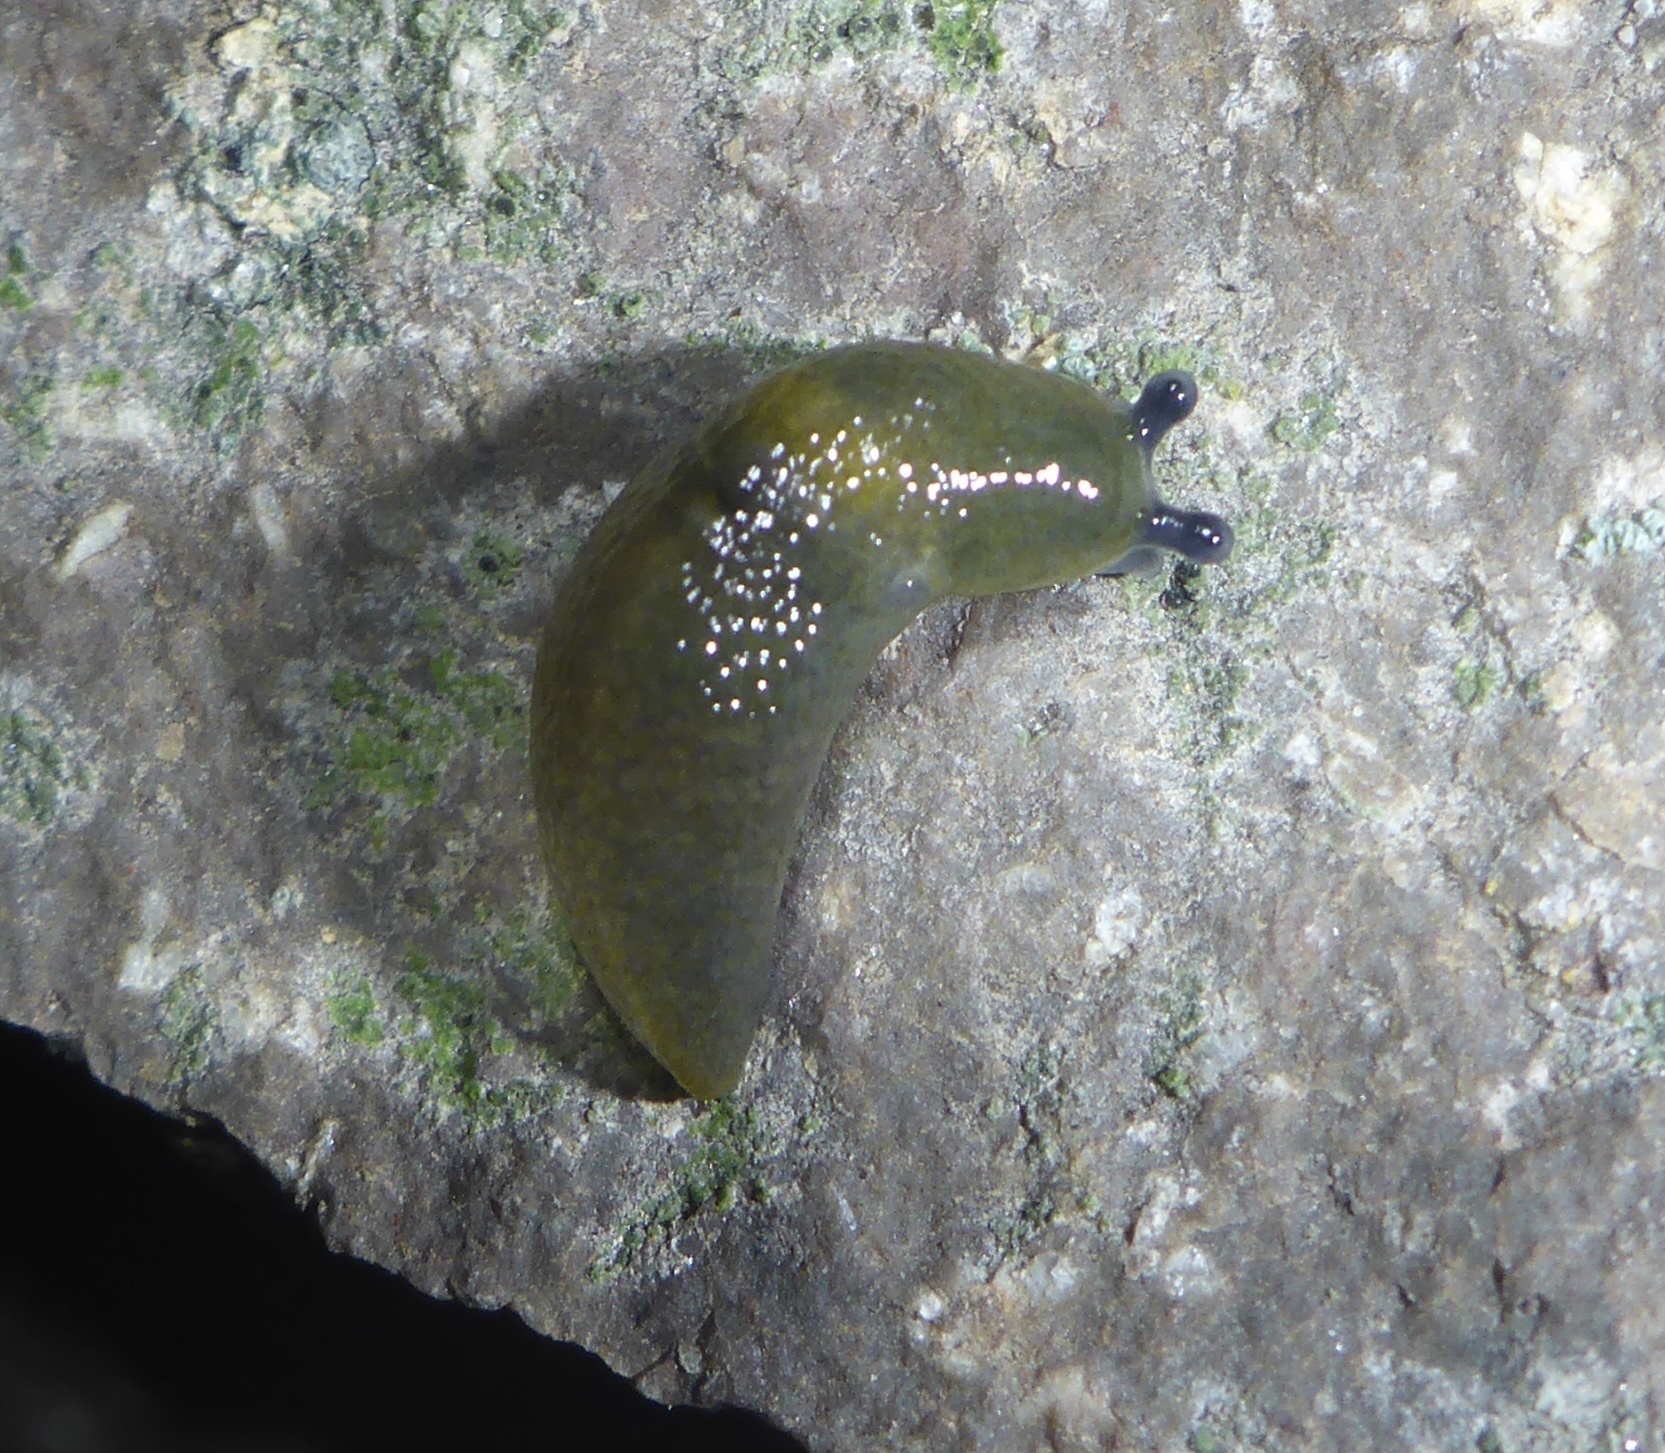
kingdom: Animalia
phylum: Mollusca
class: Gastropoda
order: Stylommatophora
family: Limacidae
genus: Limacus
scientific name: Limacus flavus
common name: Yellow gardenslug
